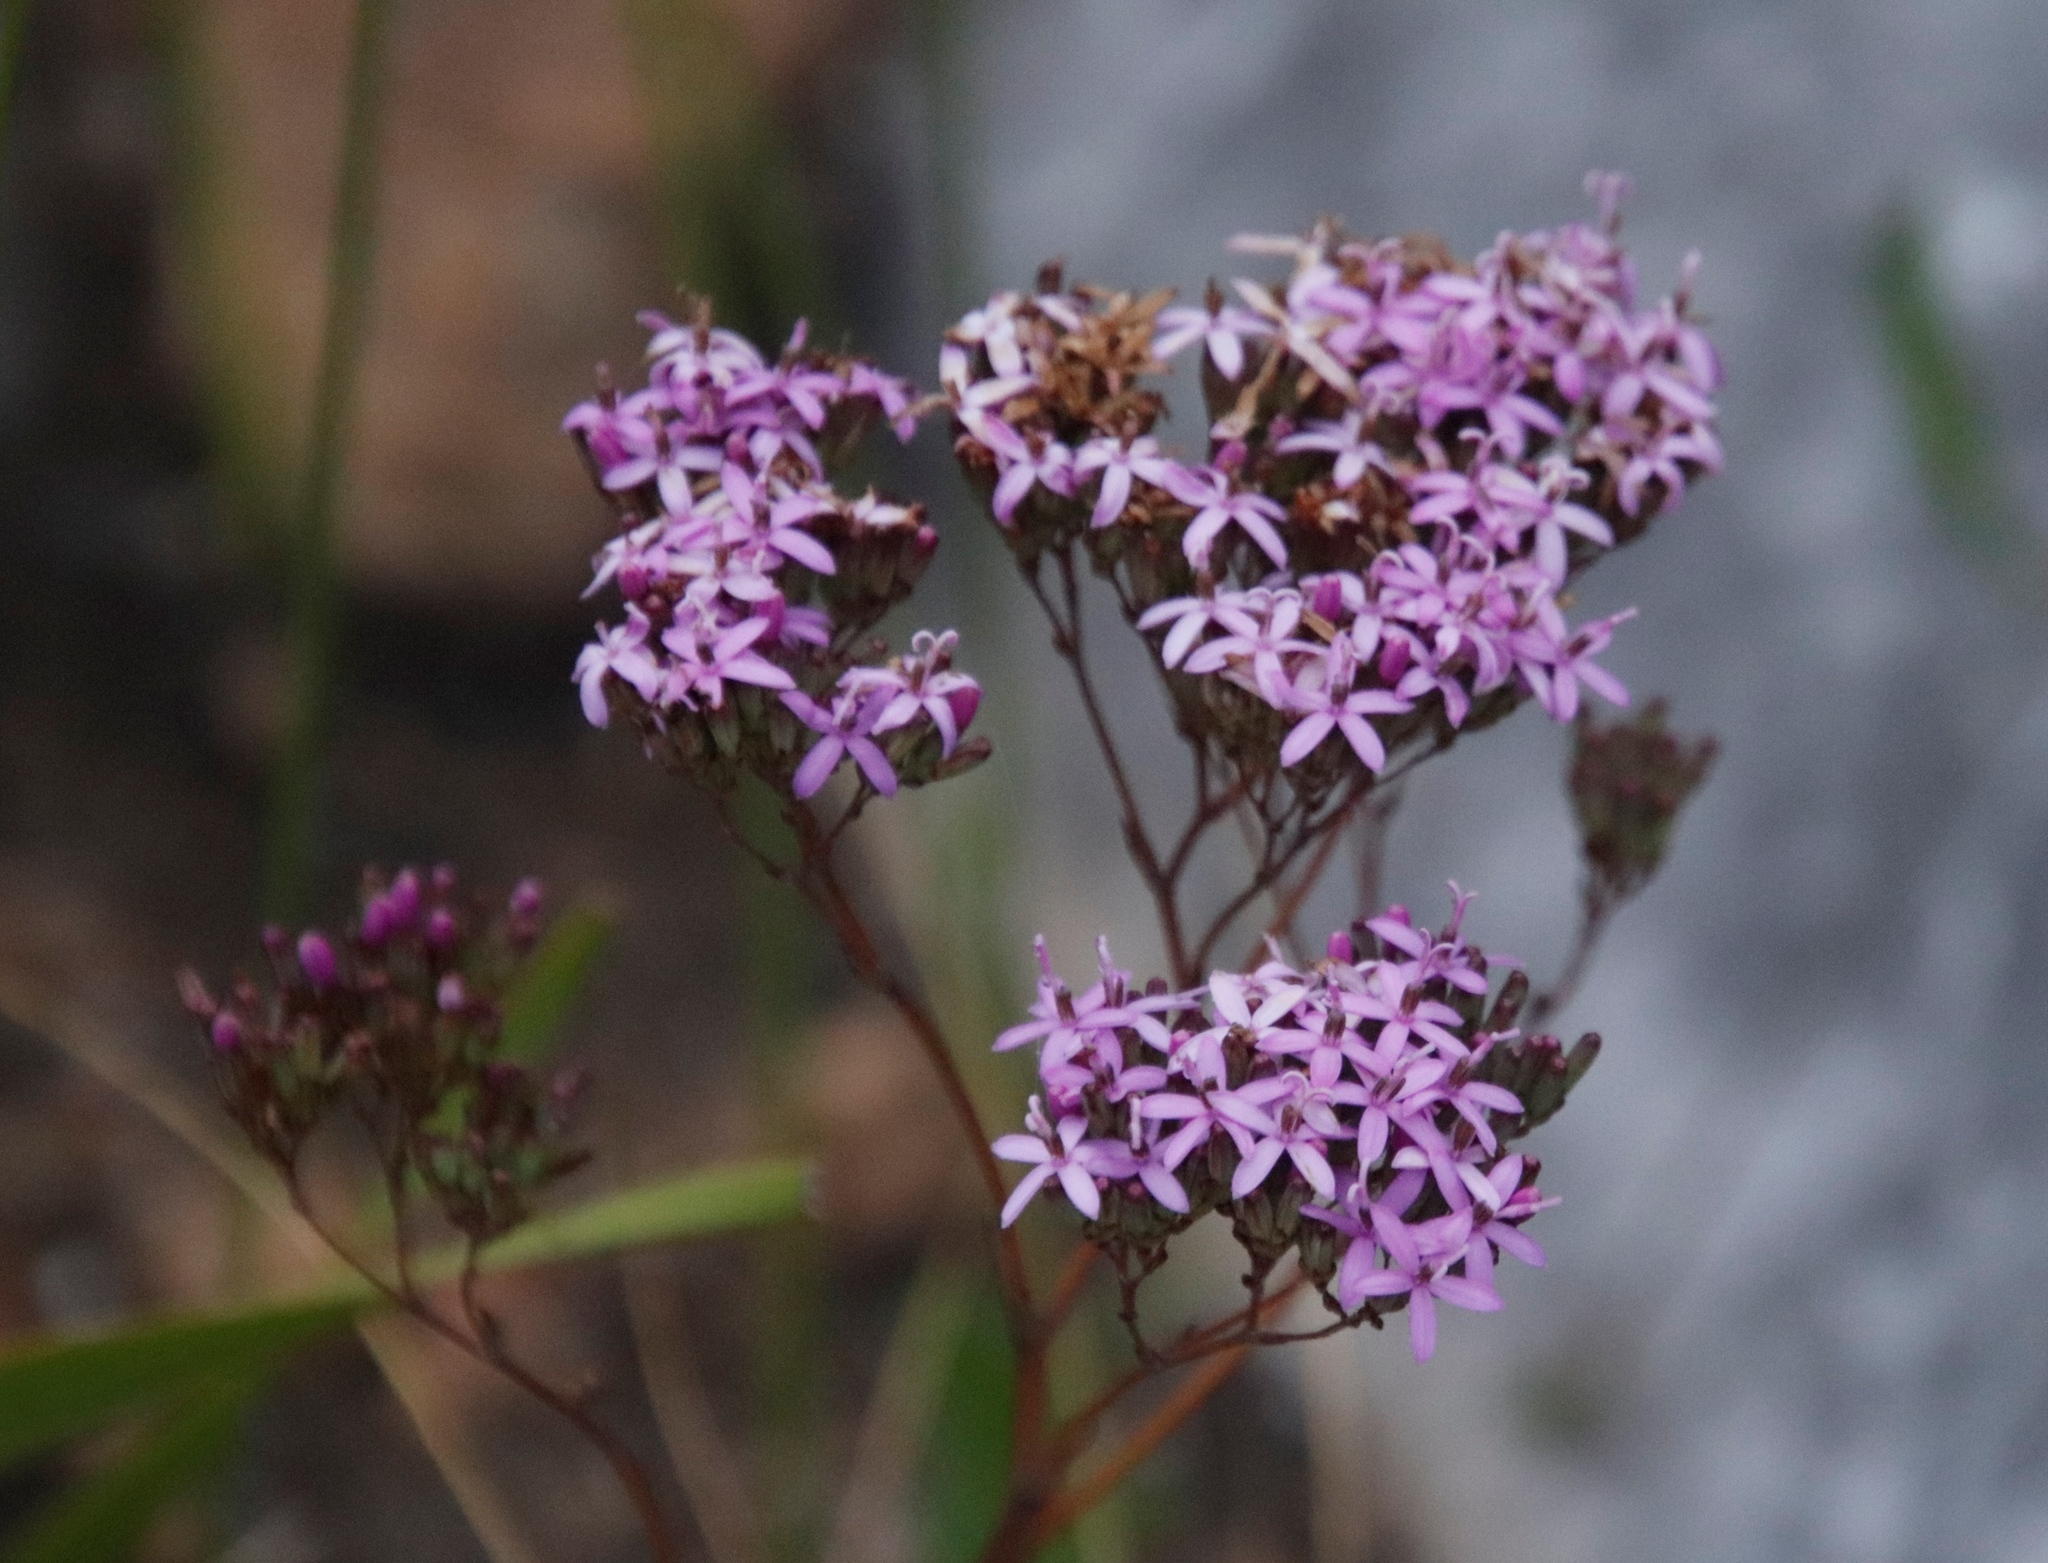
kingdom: Plantae
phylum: Tracheophyta
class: Magnoliopsida
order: Asterales
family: Asteraceae
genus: Corymbium
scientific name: Corymbium glabrum
